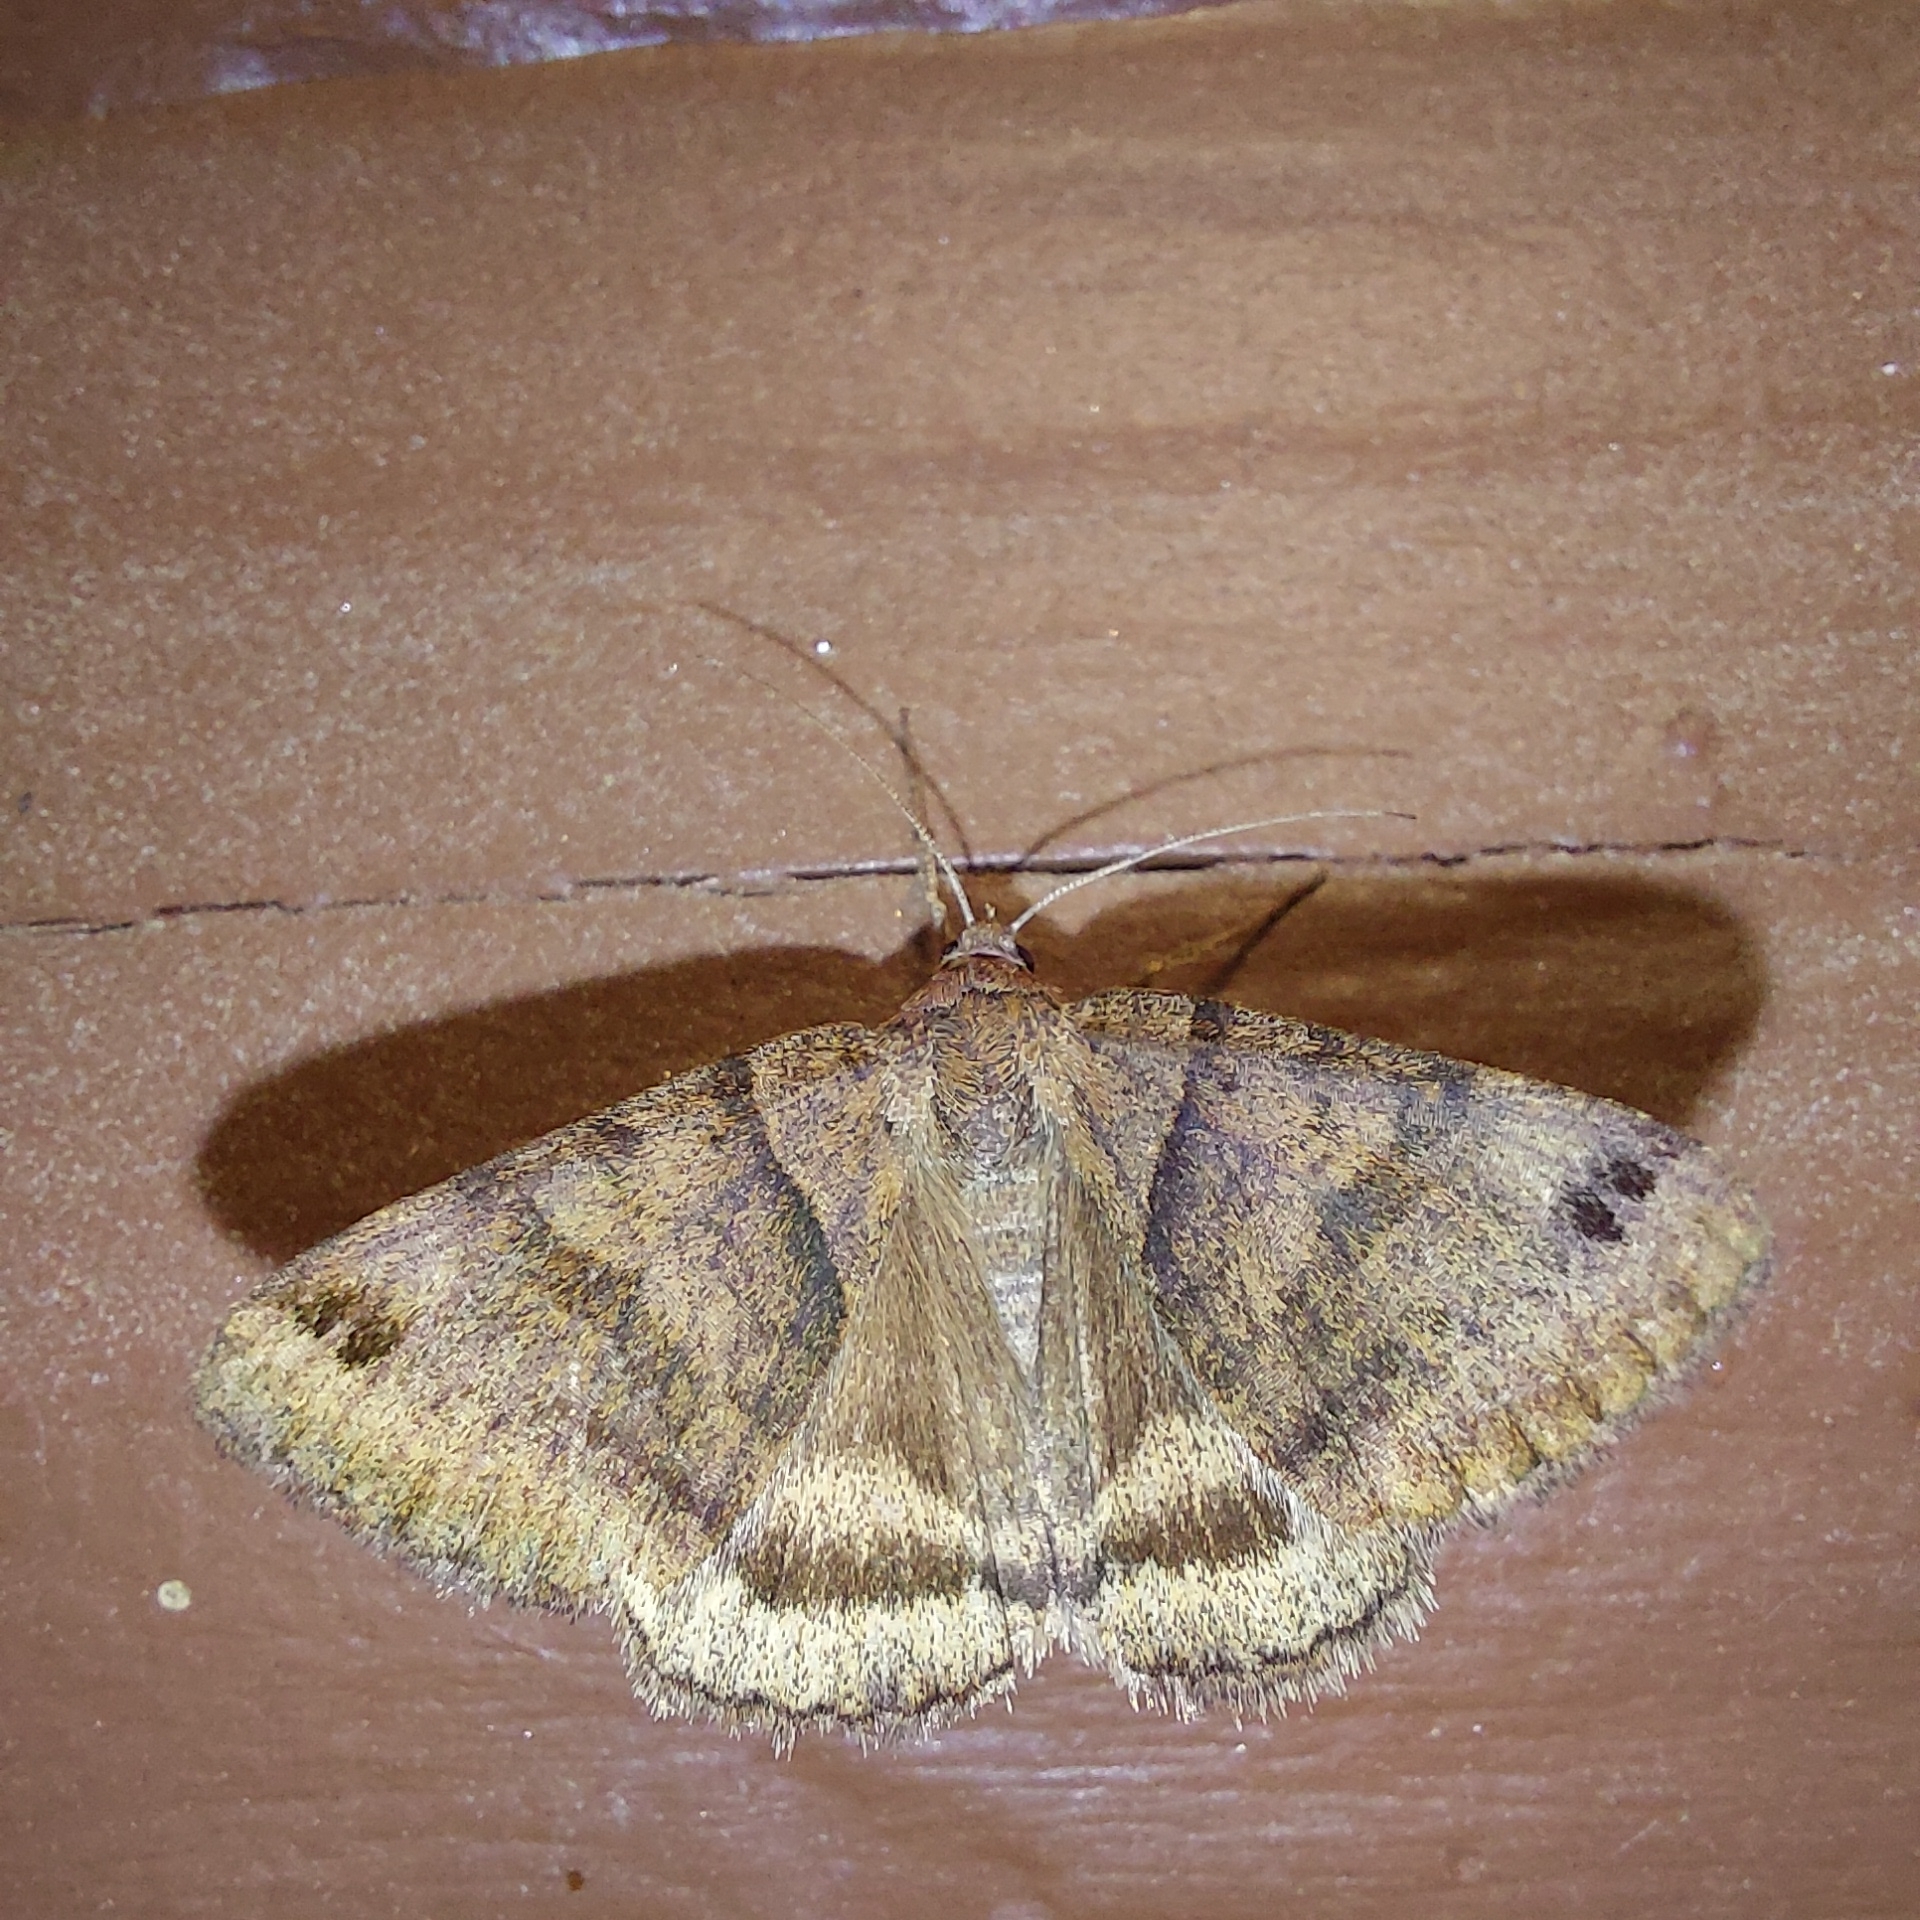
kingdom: Animalia
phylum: Arthropoda
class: Insecta
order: Lepidoptera
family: Erebidae
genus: Caenurgina
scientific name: Caenurgina crassiuscula
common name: Double-barred
